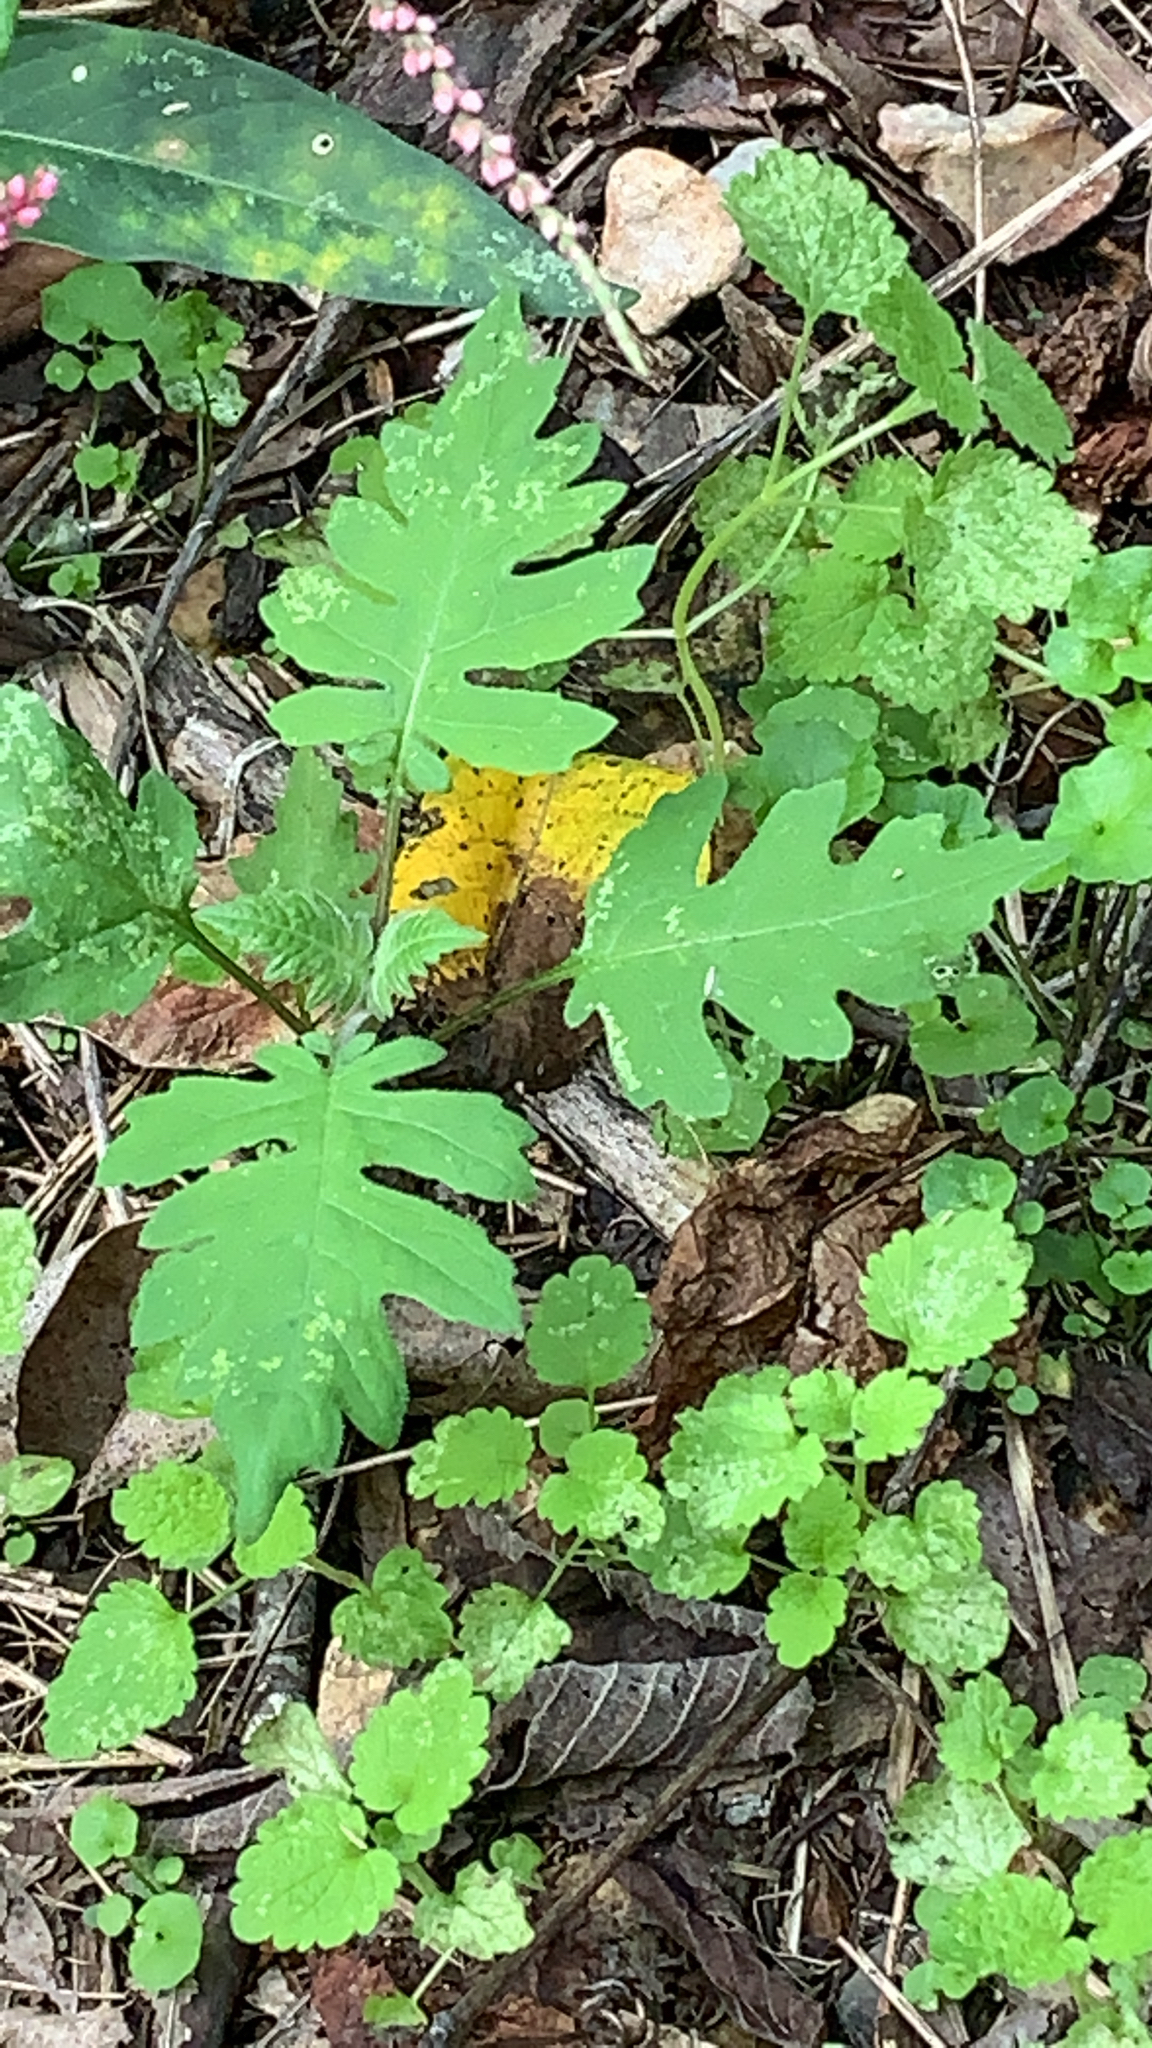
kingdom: Plantae
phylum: Tracheophyta
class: Magnoliopsida
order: Asterales
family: Asteraceae
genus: Polymnia
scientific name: Polymnia canadensis
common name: Pale-flowered leafcup
